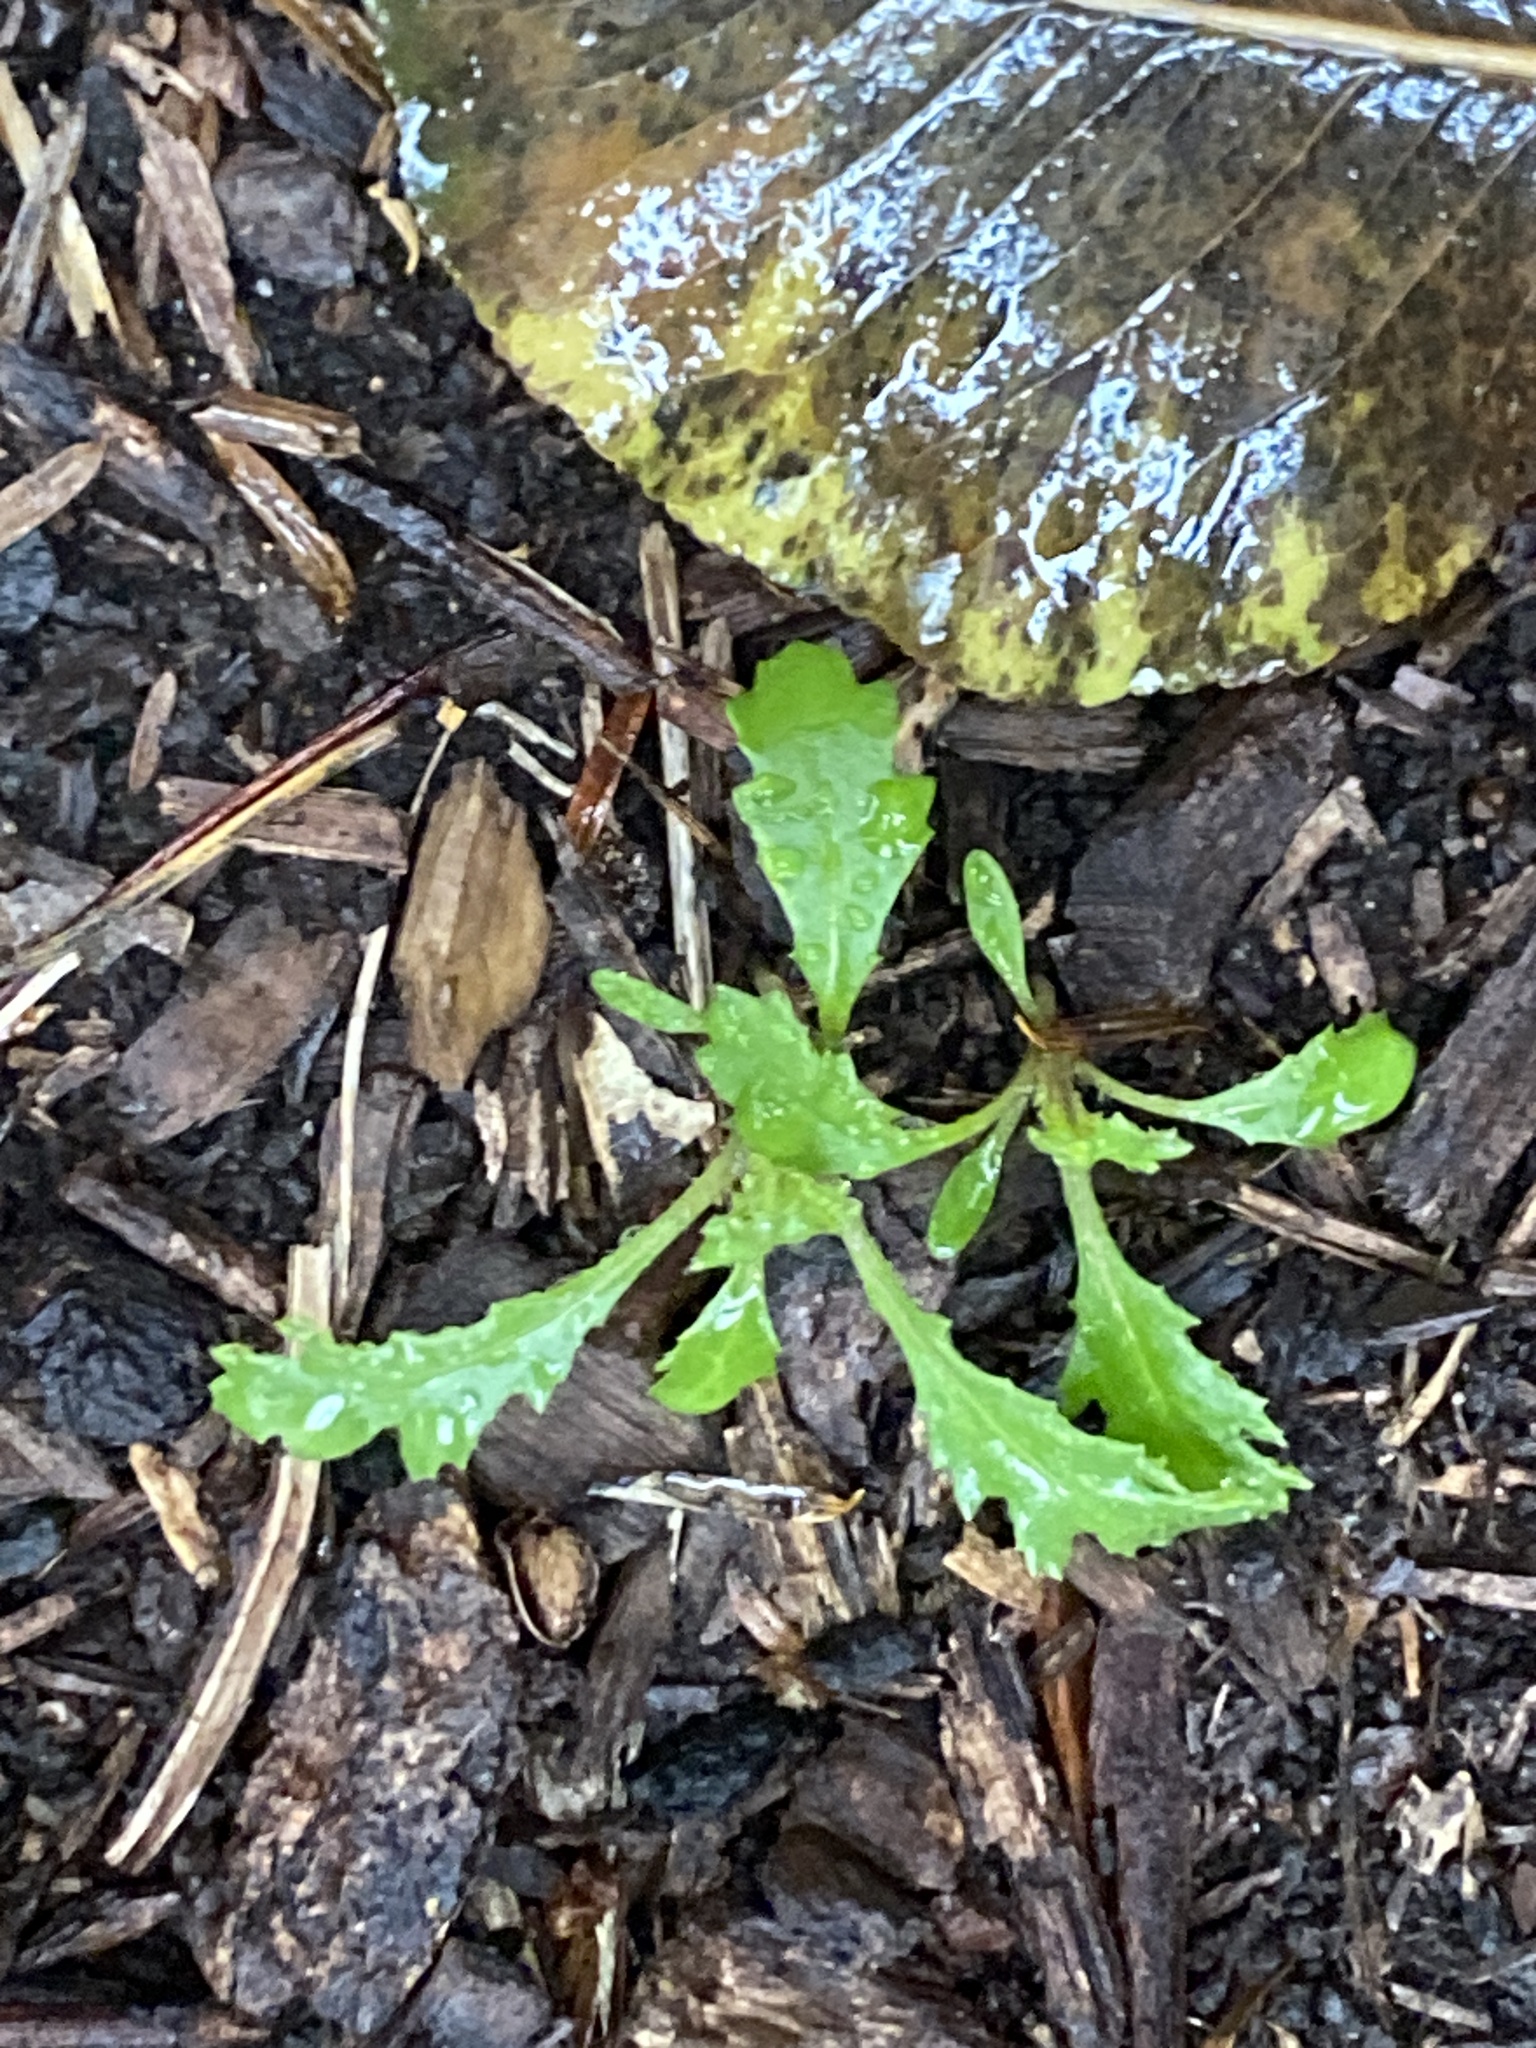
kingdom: Plantae
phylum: Tracheophyta
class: Magnoliopsida
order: Asterales
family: Asteraceae
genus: Senecio
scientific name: Senecio vulgaris
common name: Old-man-in-the-spring
